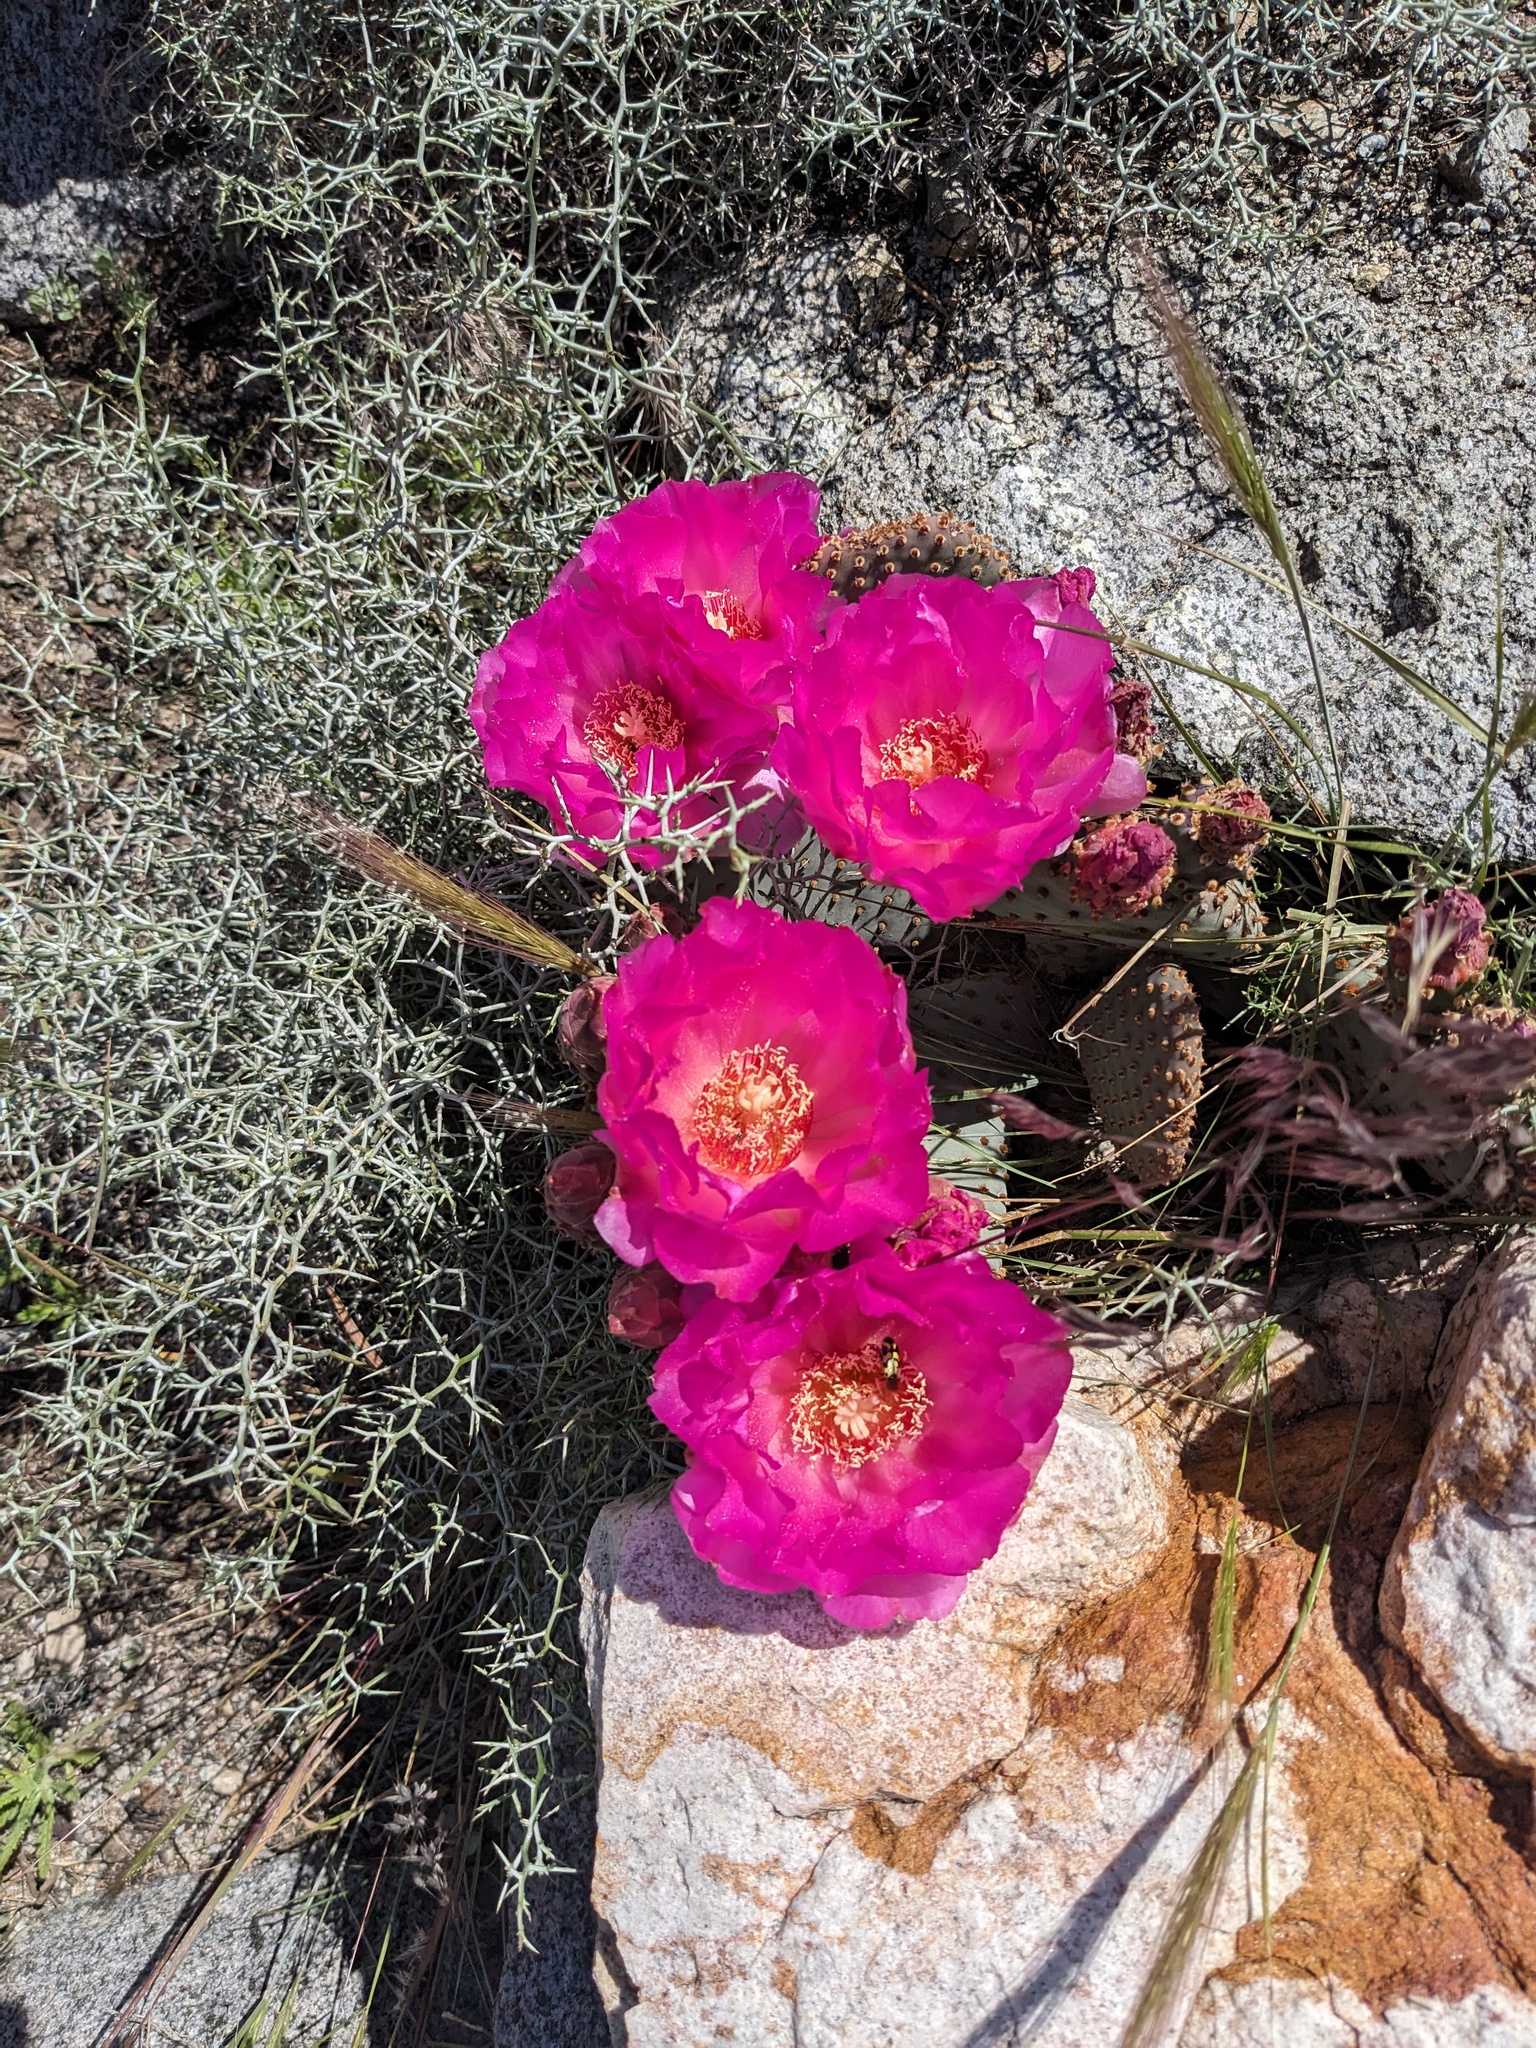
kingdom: Plantae
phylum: Tracheophyta
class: Magnoliopsida
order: Caryophyllales
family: Cactaceae
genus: Opuntia
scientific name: Opuntia basilaris
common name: Beavertail prickly-pear
